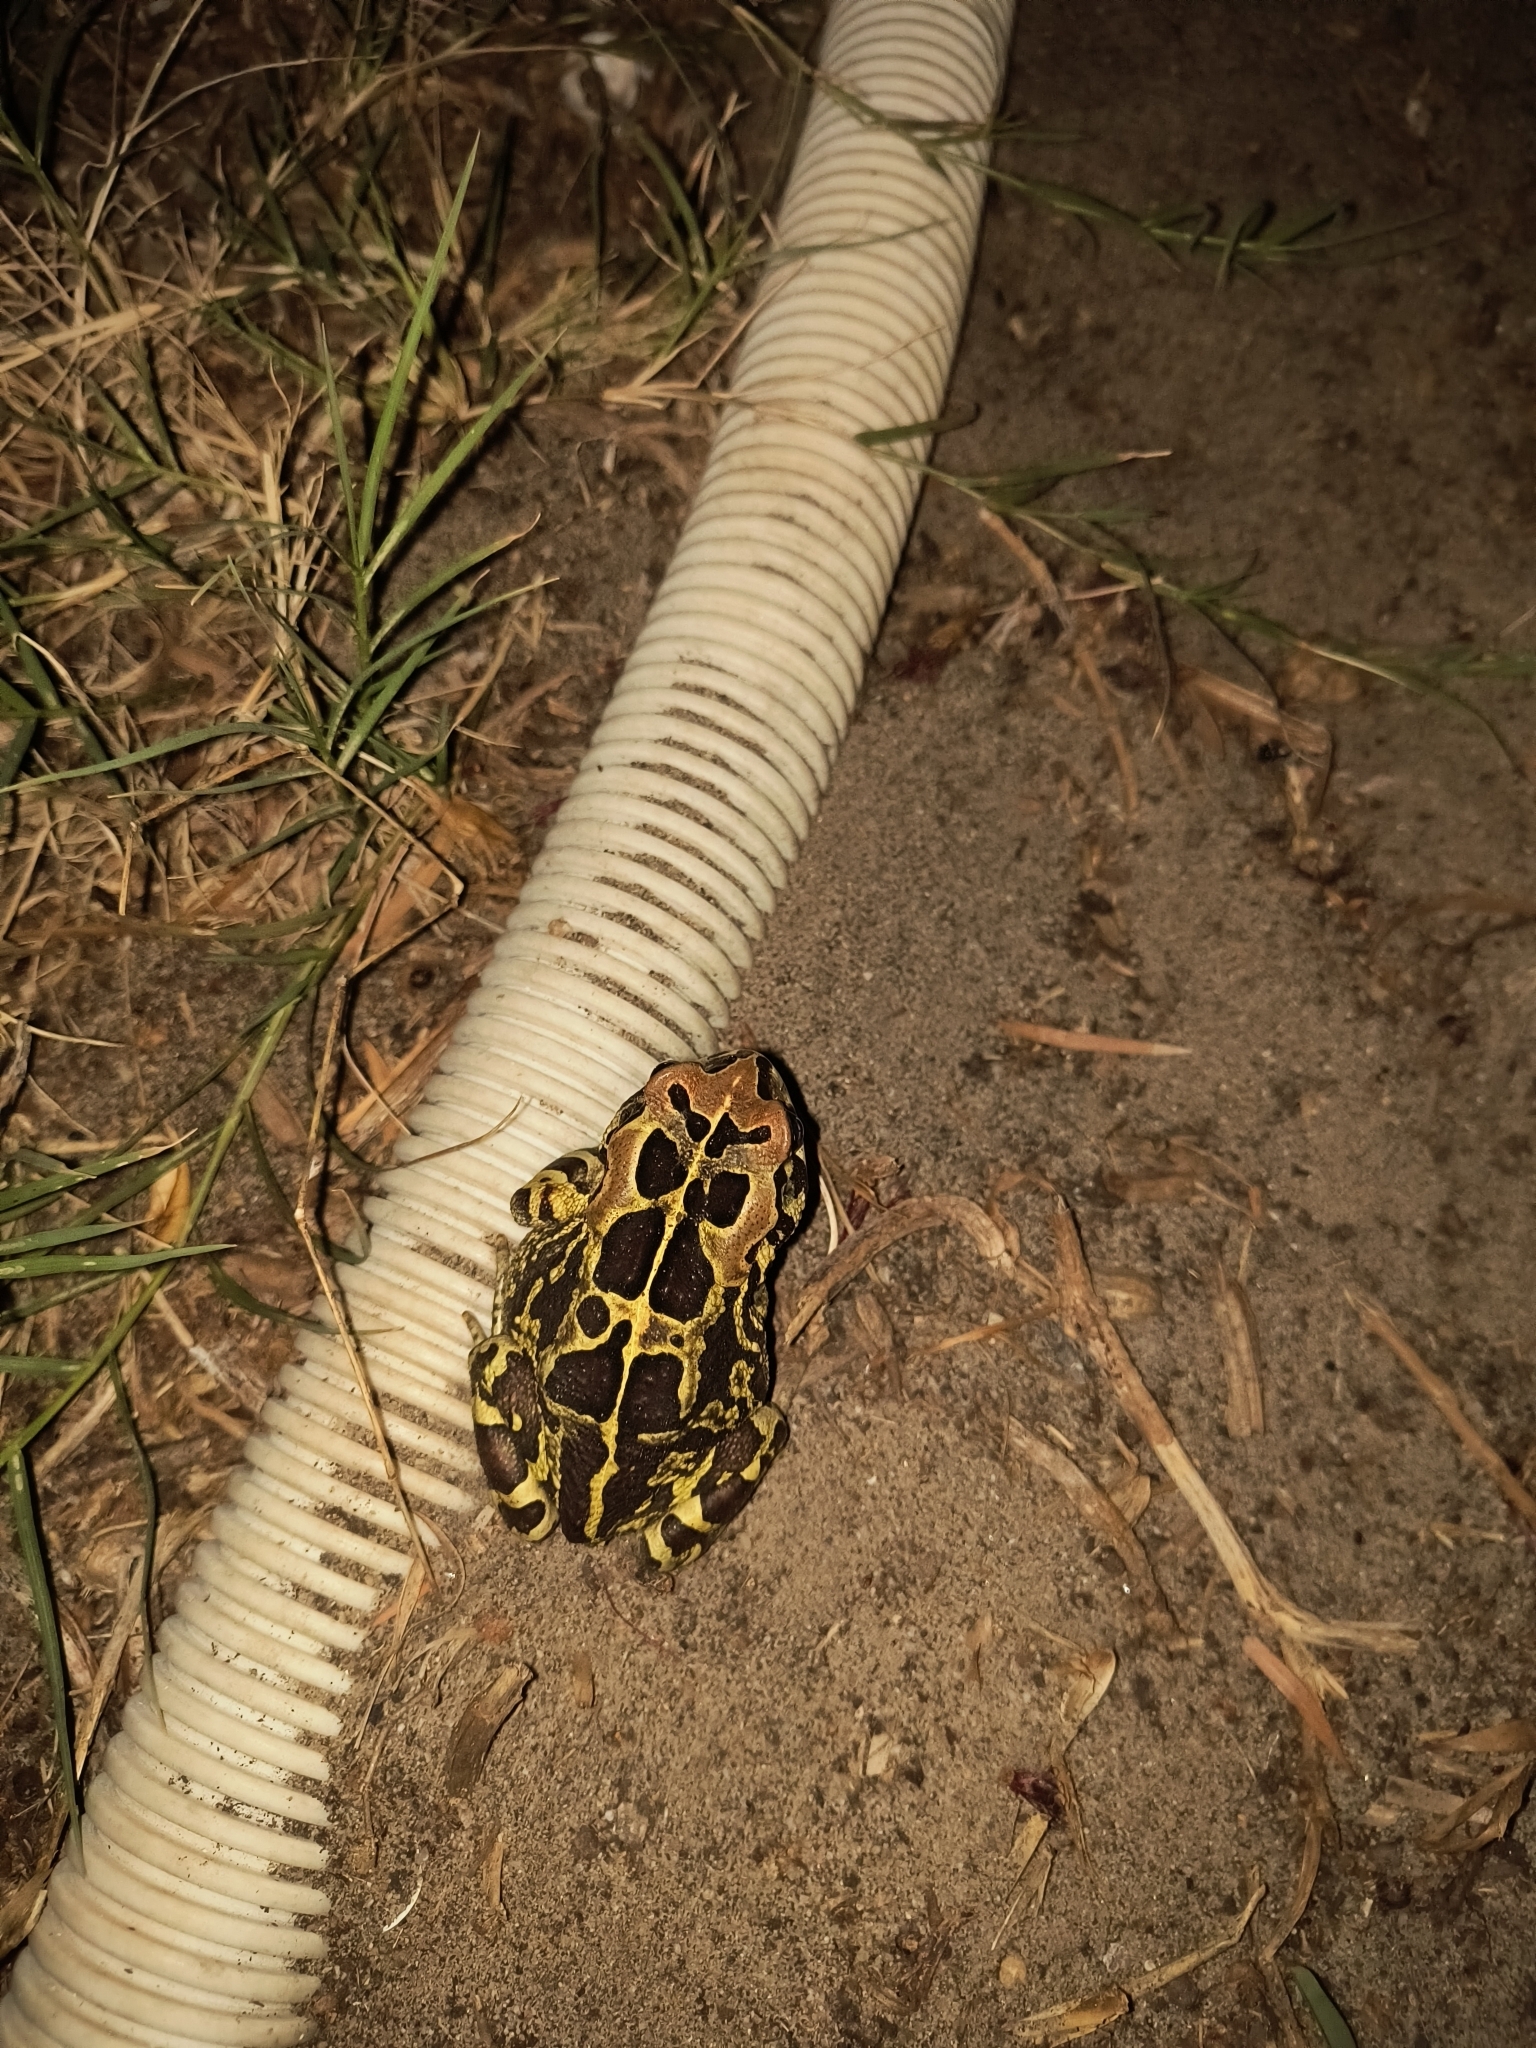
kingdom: Animalia
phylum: Chordata
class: Amphibia
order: Anura
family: Bufonidae
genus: Sclerophrys
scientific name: Sclerophrys pantherina
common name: Panther toad
